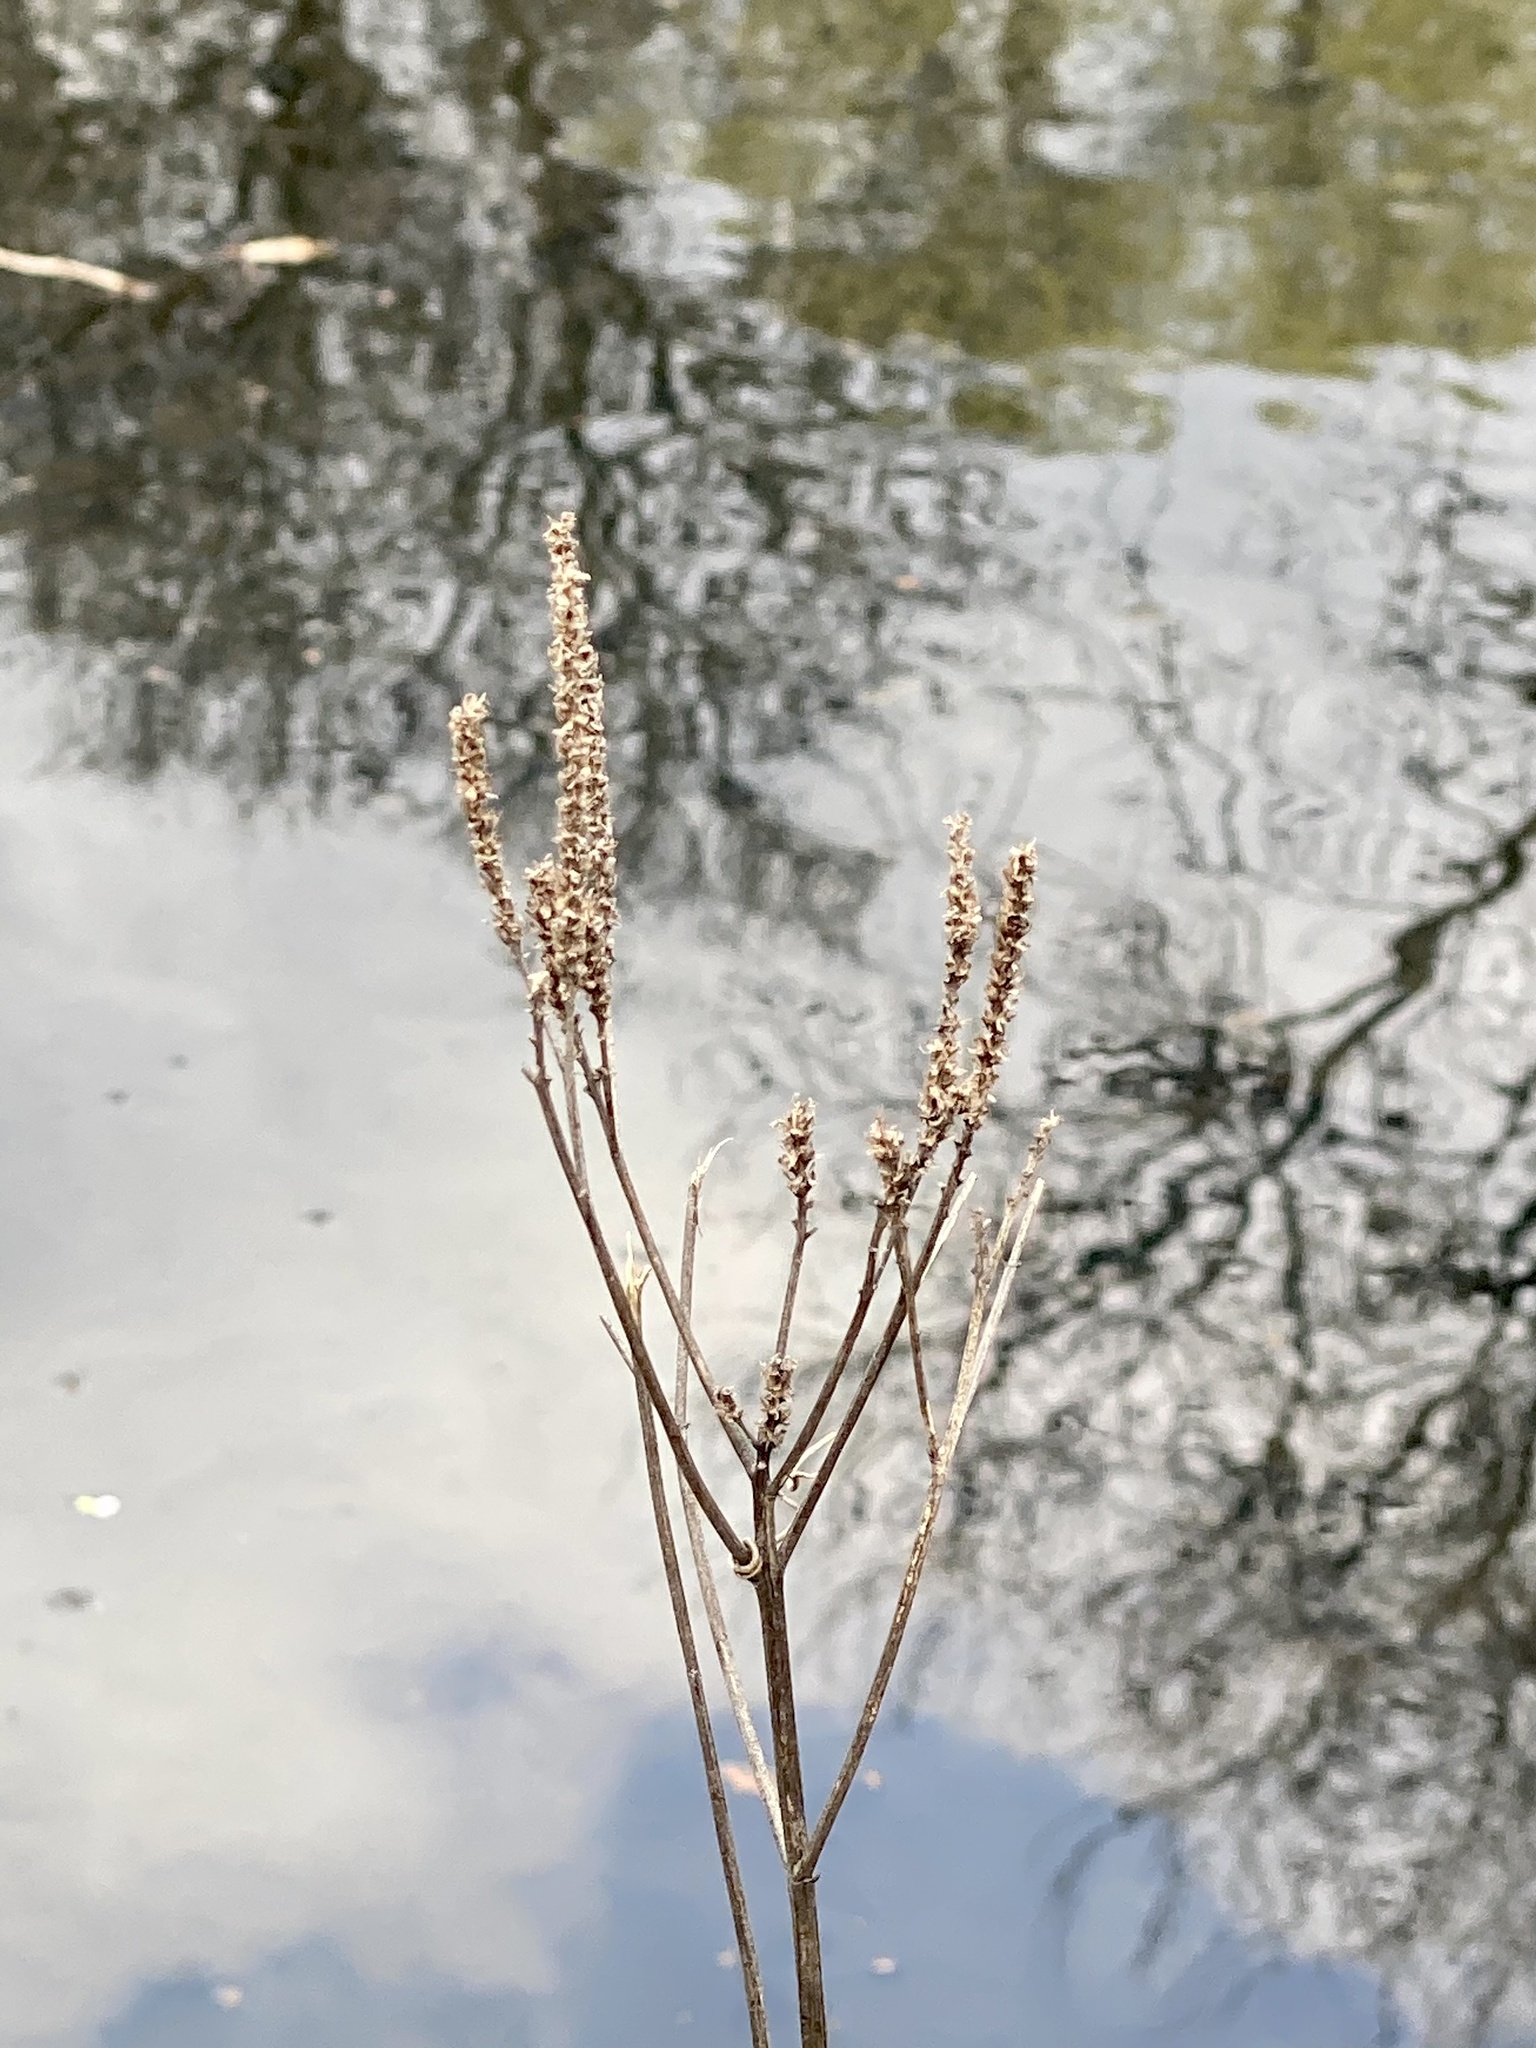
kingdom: Plantae
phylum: Tracheophyta
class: Magnoliopsida
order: Lamiales
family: Verbenaceae
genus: Verbena
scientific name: Verbena hastata
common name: American blue vervain
